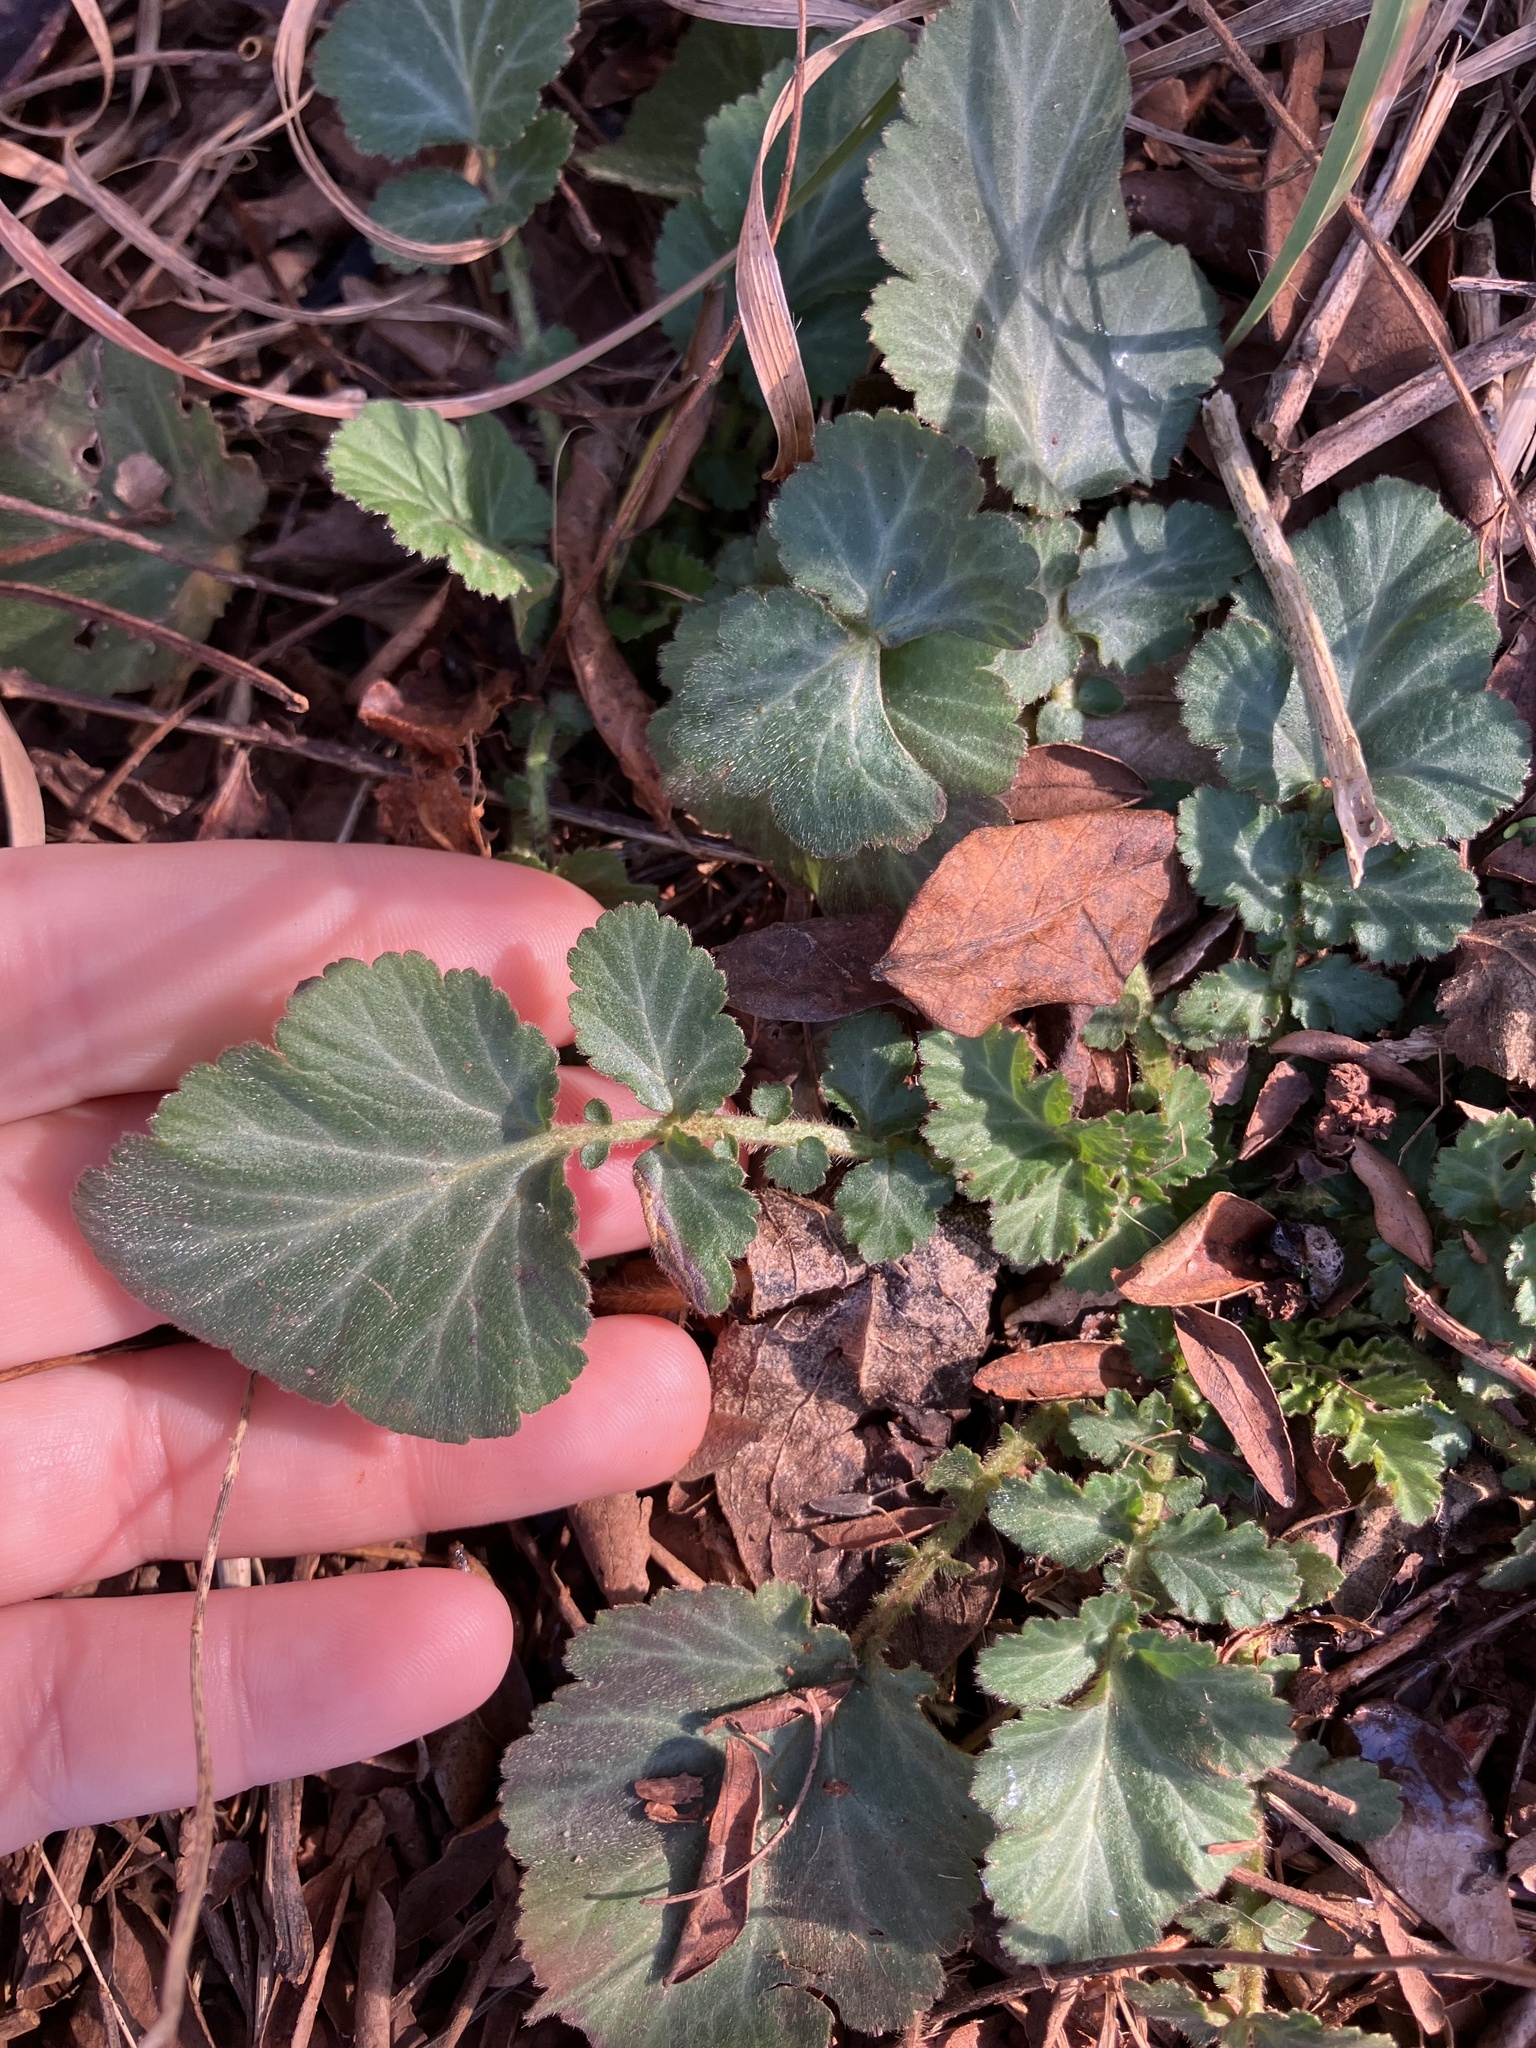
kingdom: Plantae
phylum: Tracheophyta
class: Magnoliopsida
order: Rosales
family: Rosaceae
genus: Geum
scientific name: Geum canadense
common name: White avens
